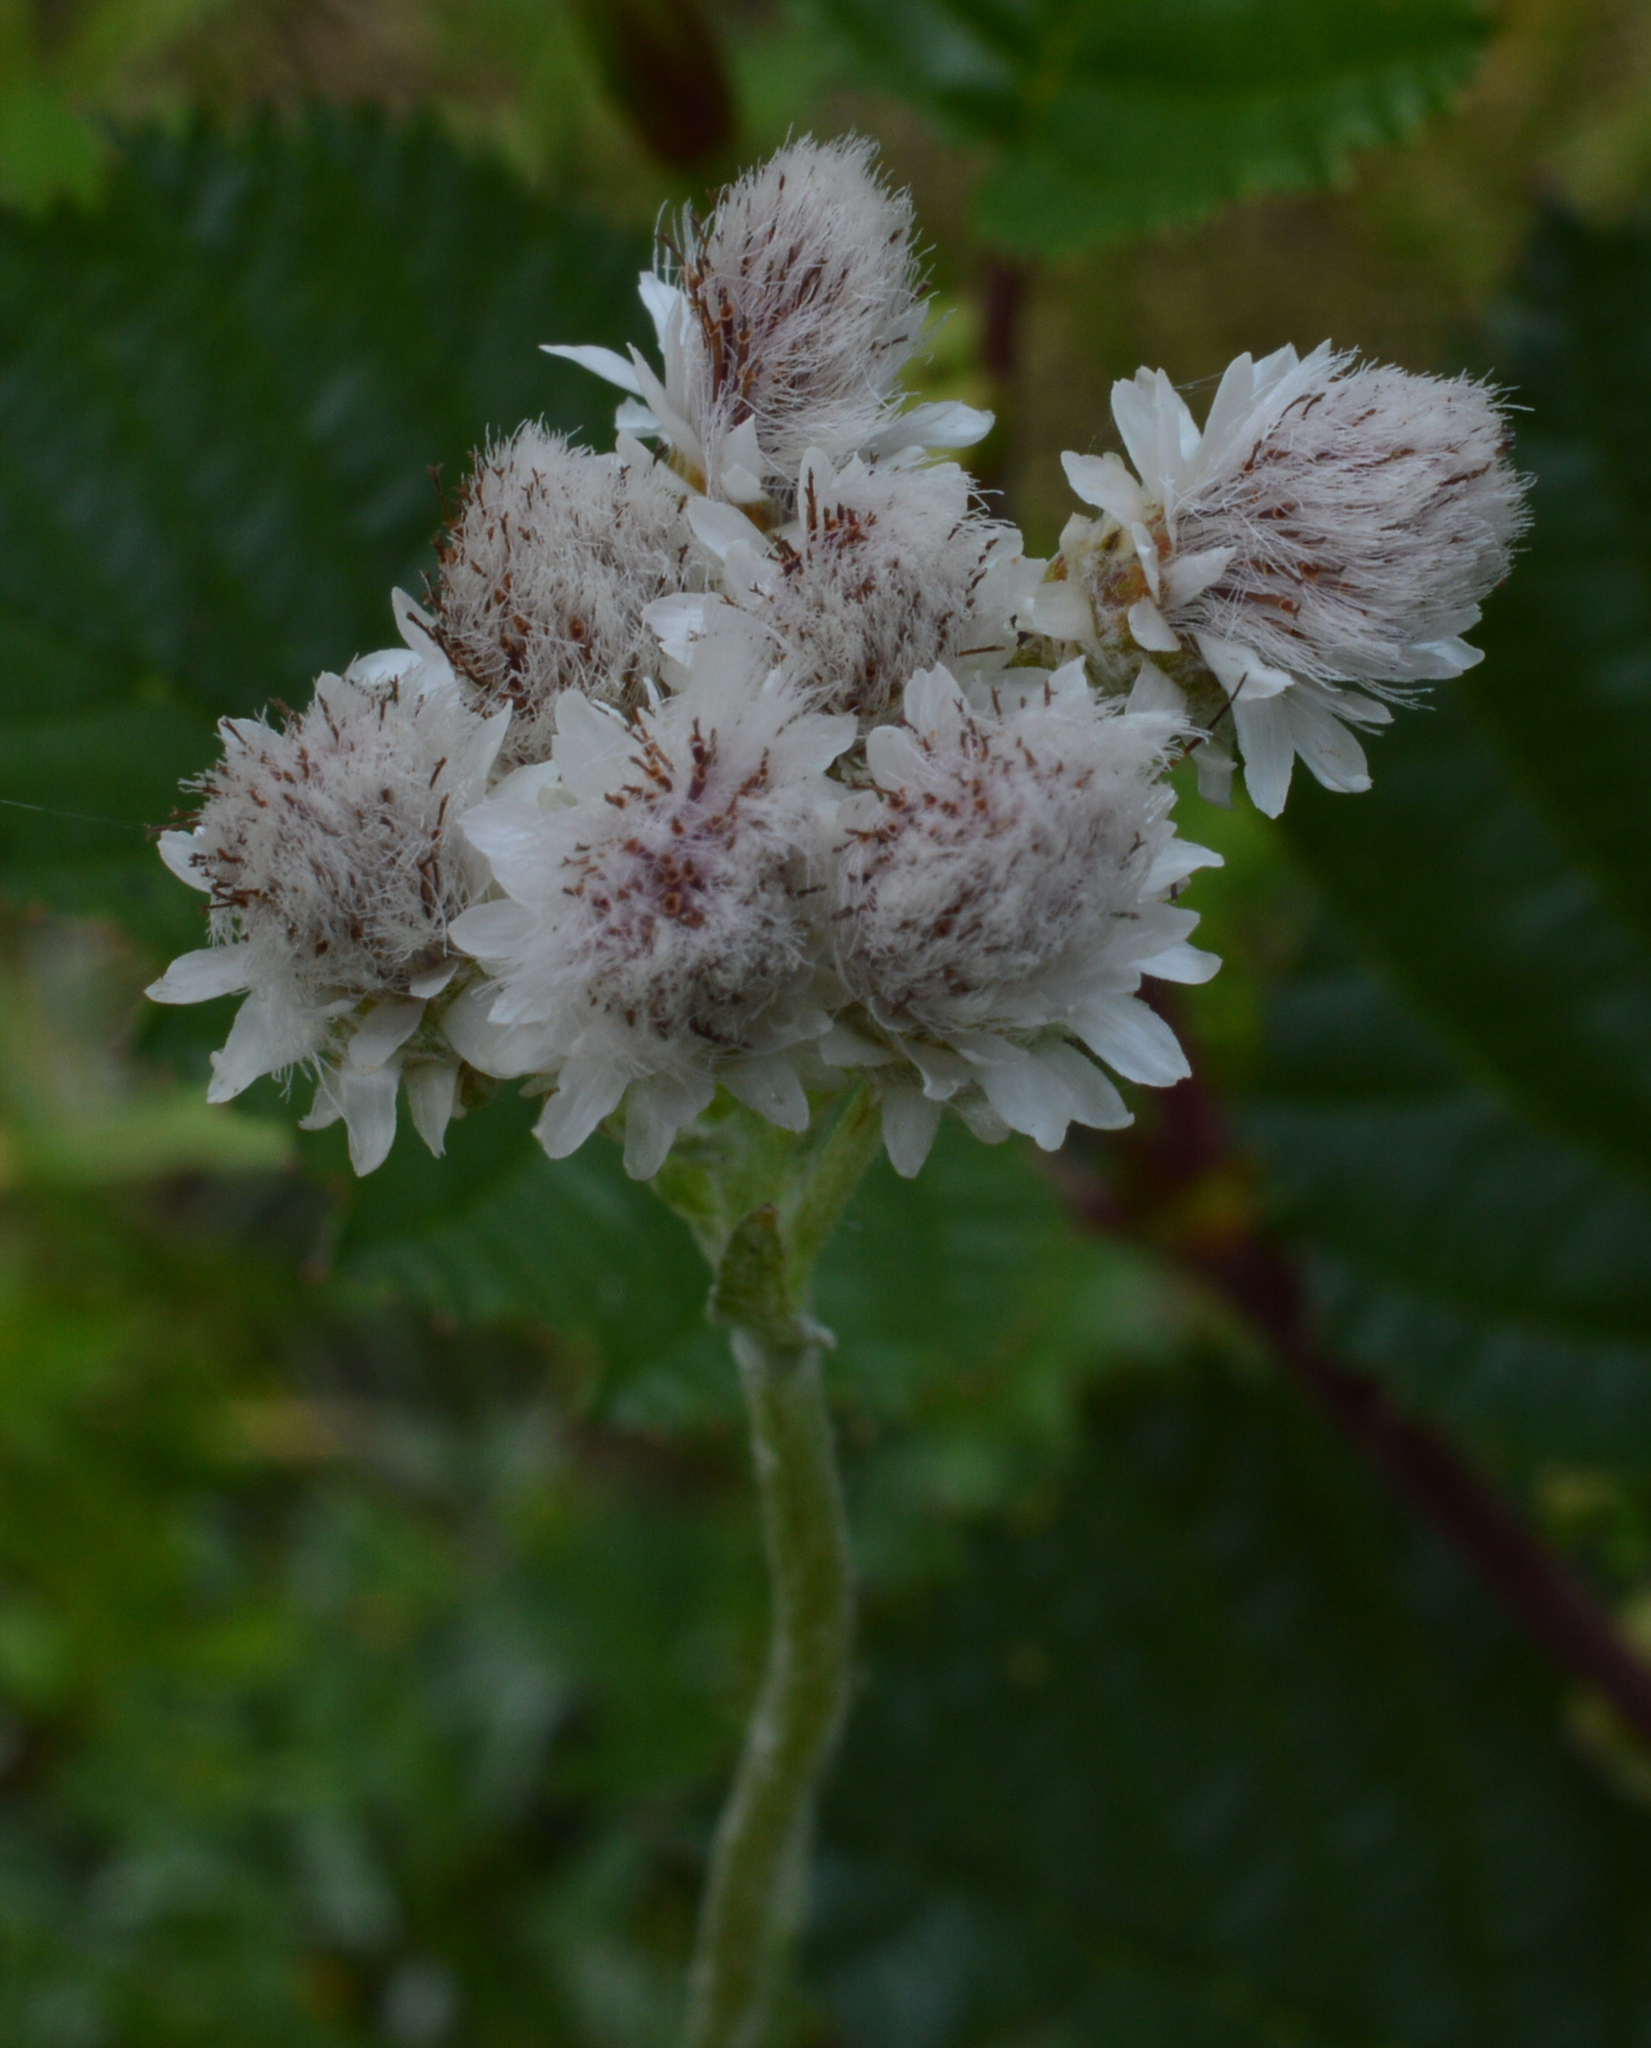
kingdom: Plantae
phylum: Tracheophyta
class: Magnoliopsida
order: Asterales
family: Asteraceae
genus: Antennaria
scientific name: Antennaria dioica
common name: Mountain everlasting
